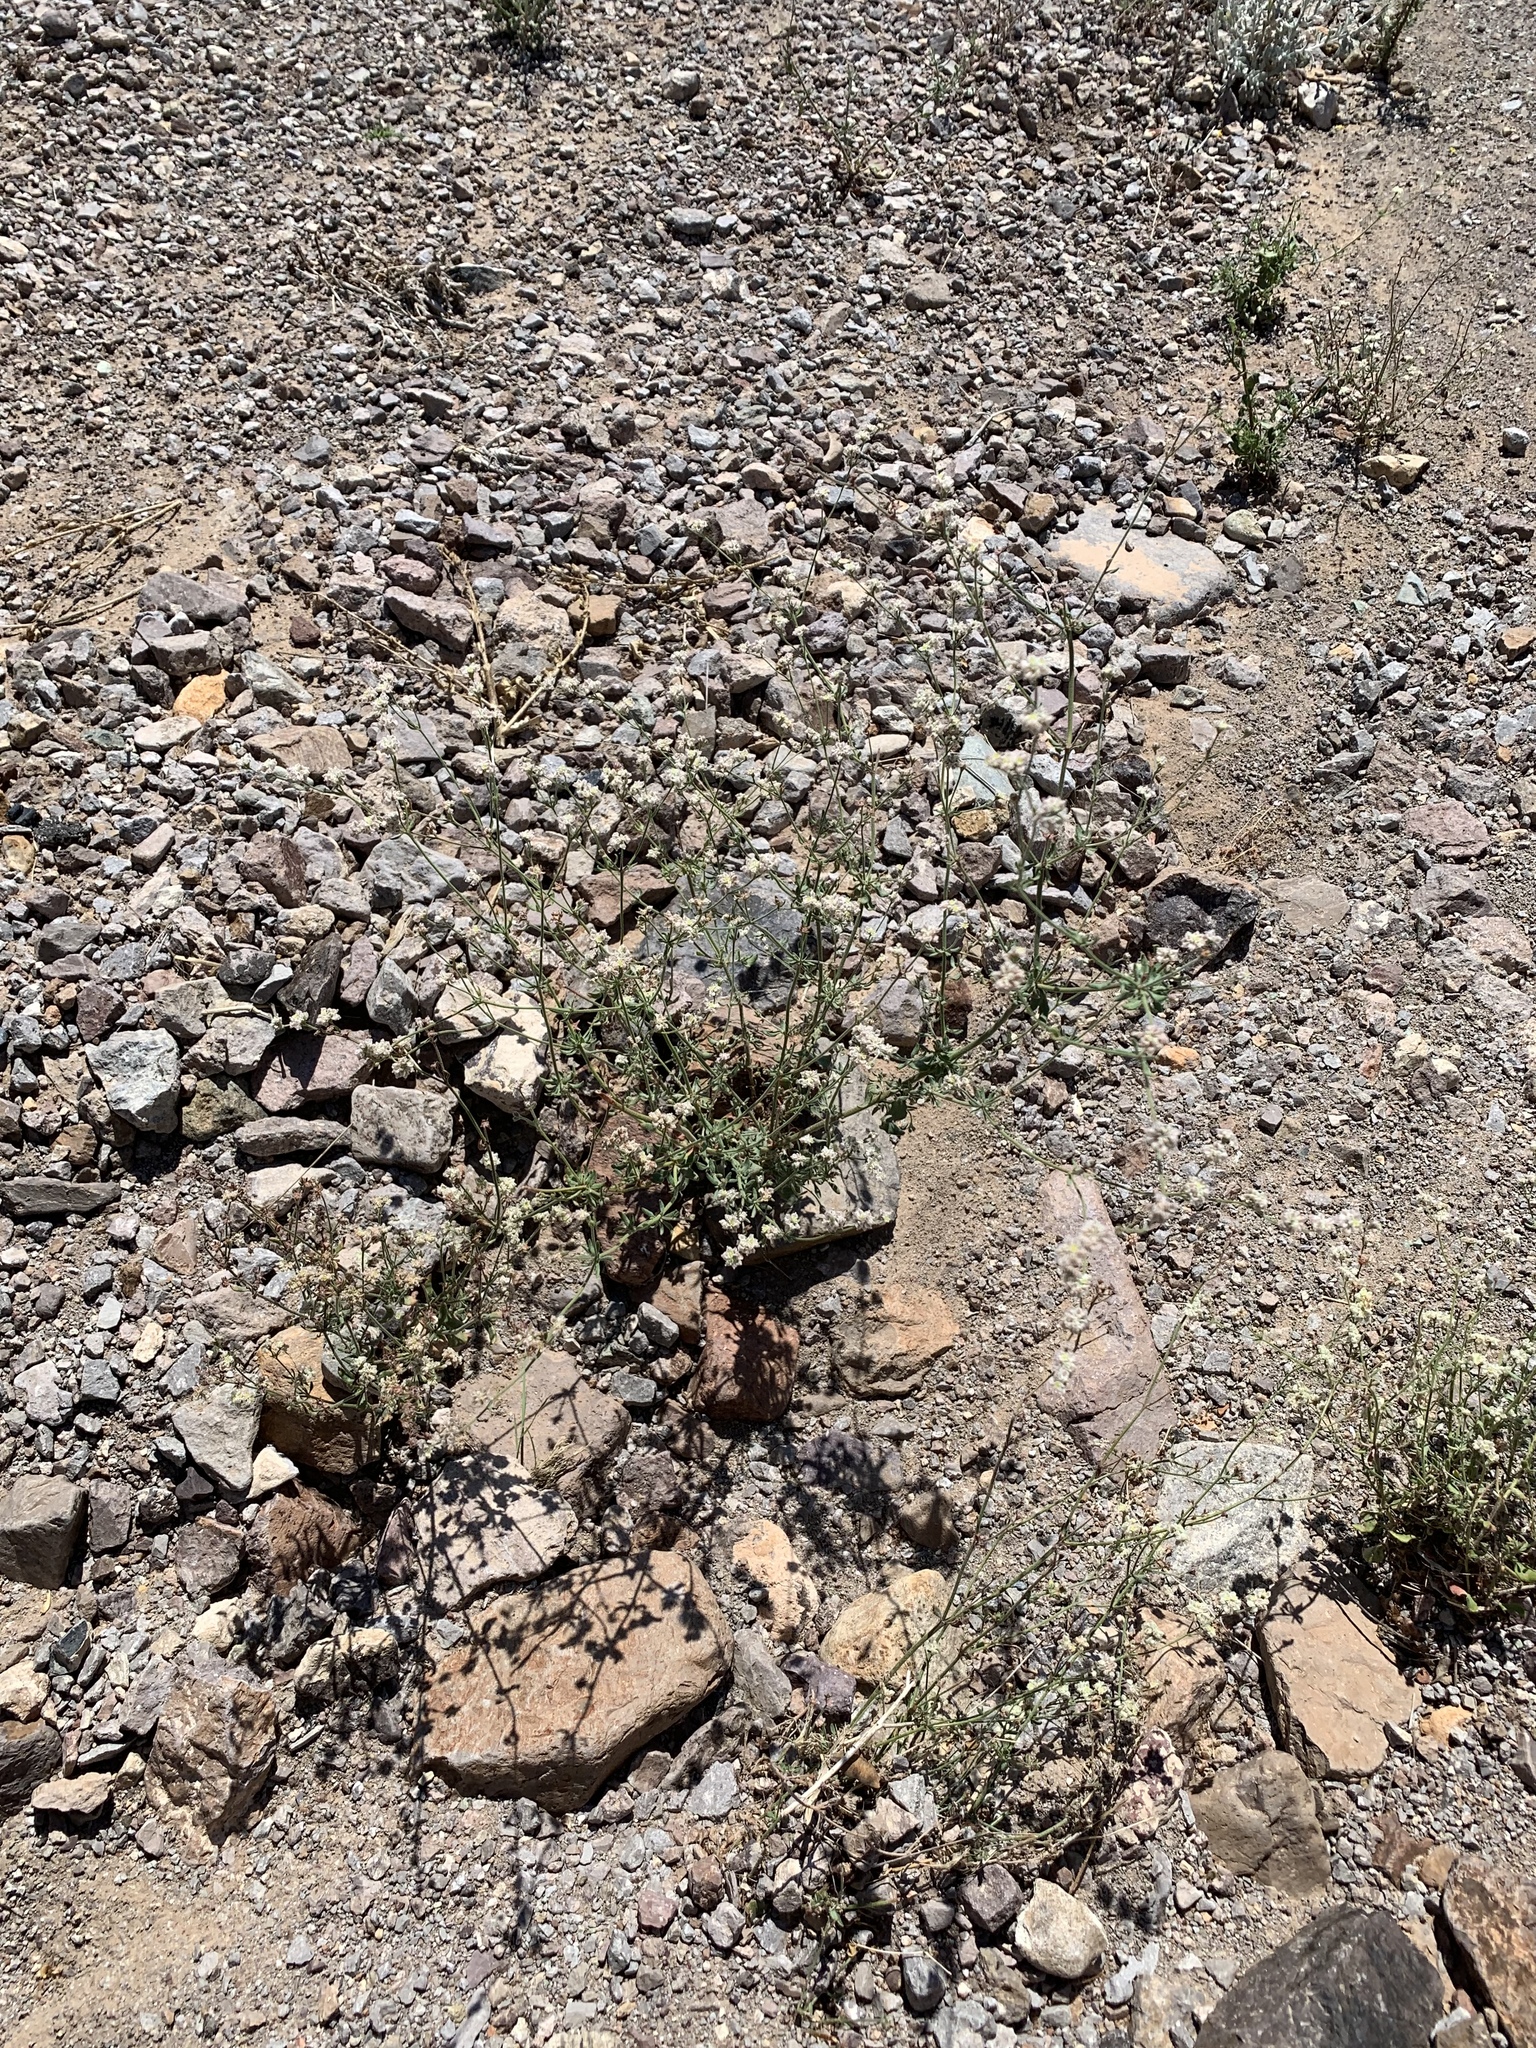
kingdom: Plantae
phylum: Tracheophyta
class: Magnoliopsida
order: Caryophyllales
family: Polygonaceae
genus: Eriogonum
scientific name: Eriogonum abertianum
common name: Abert's wild buckwheat
